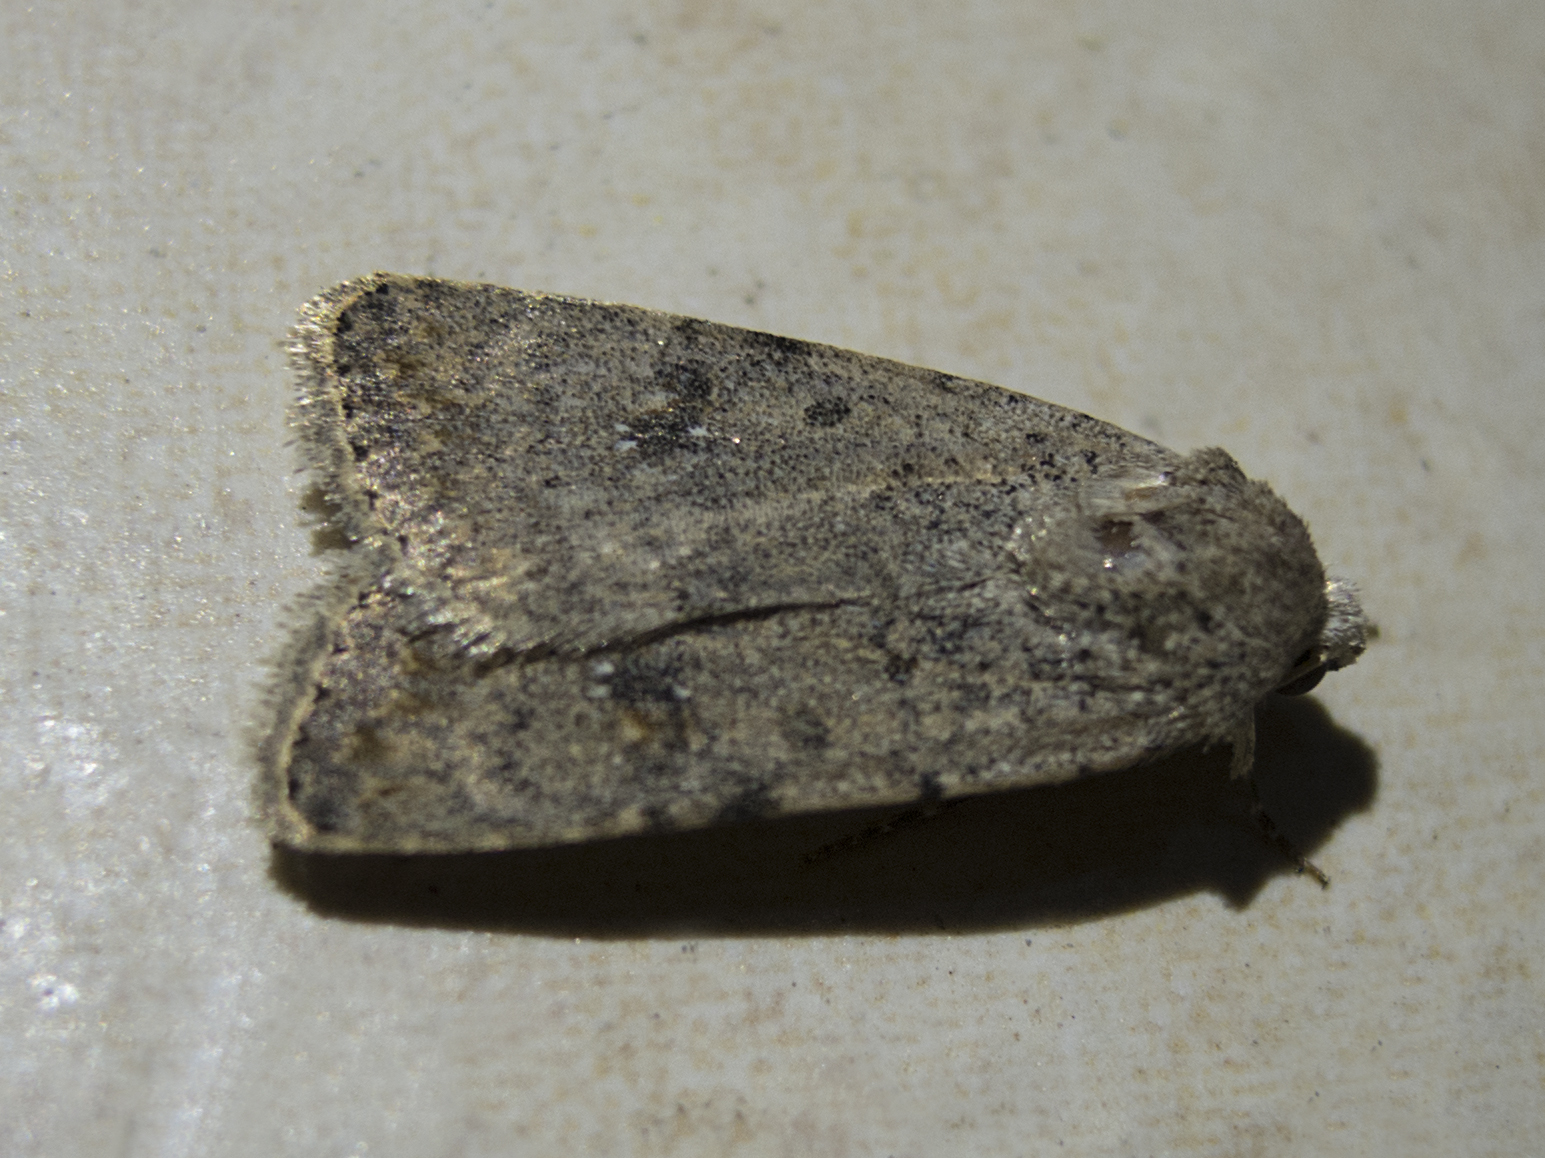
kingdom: Animalia
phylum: Arthropoda
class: Insecta
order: Lepidoptera
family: Noctuidae
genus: Caradrina
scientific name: Caradrina clavipalpis
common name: Pale mottled willow
